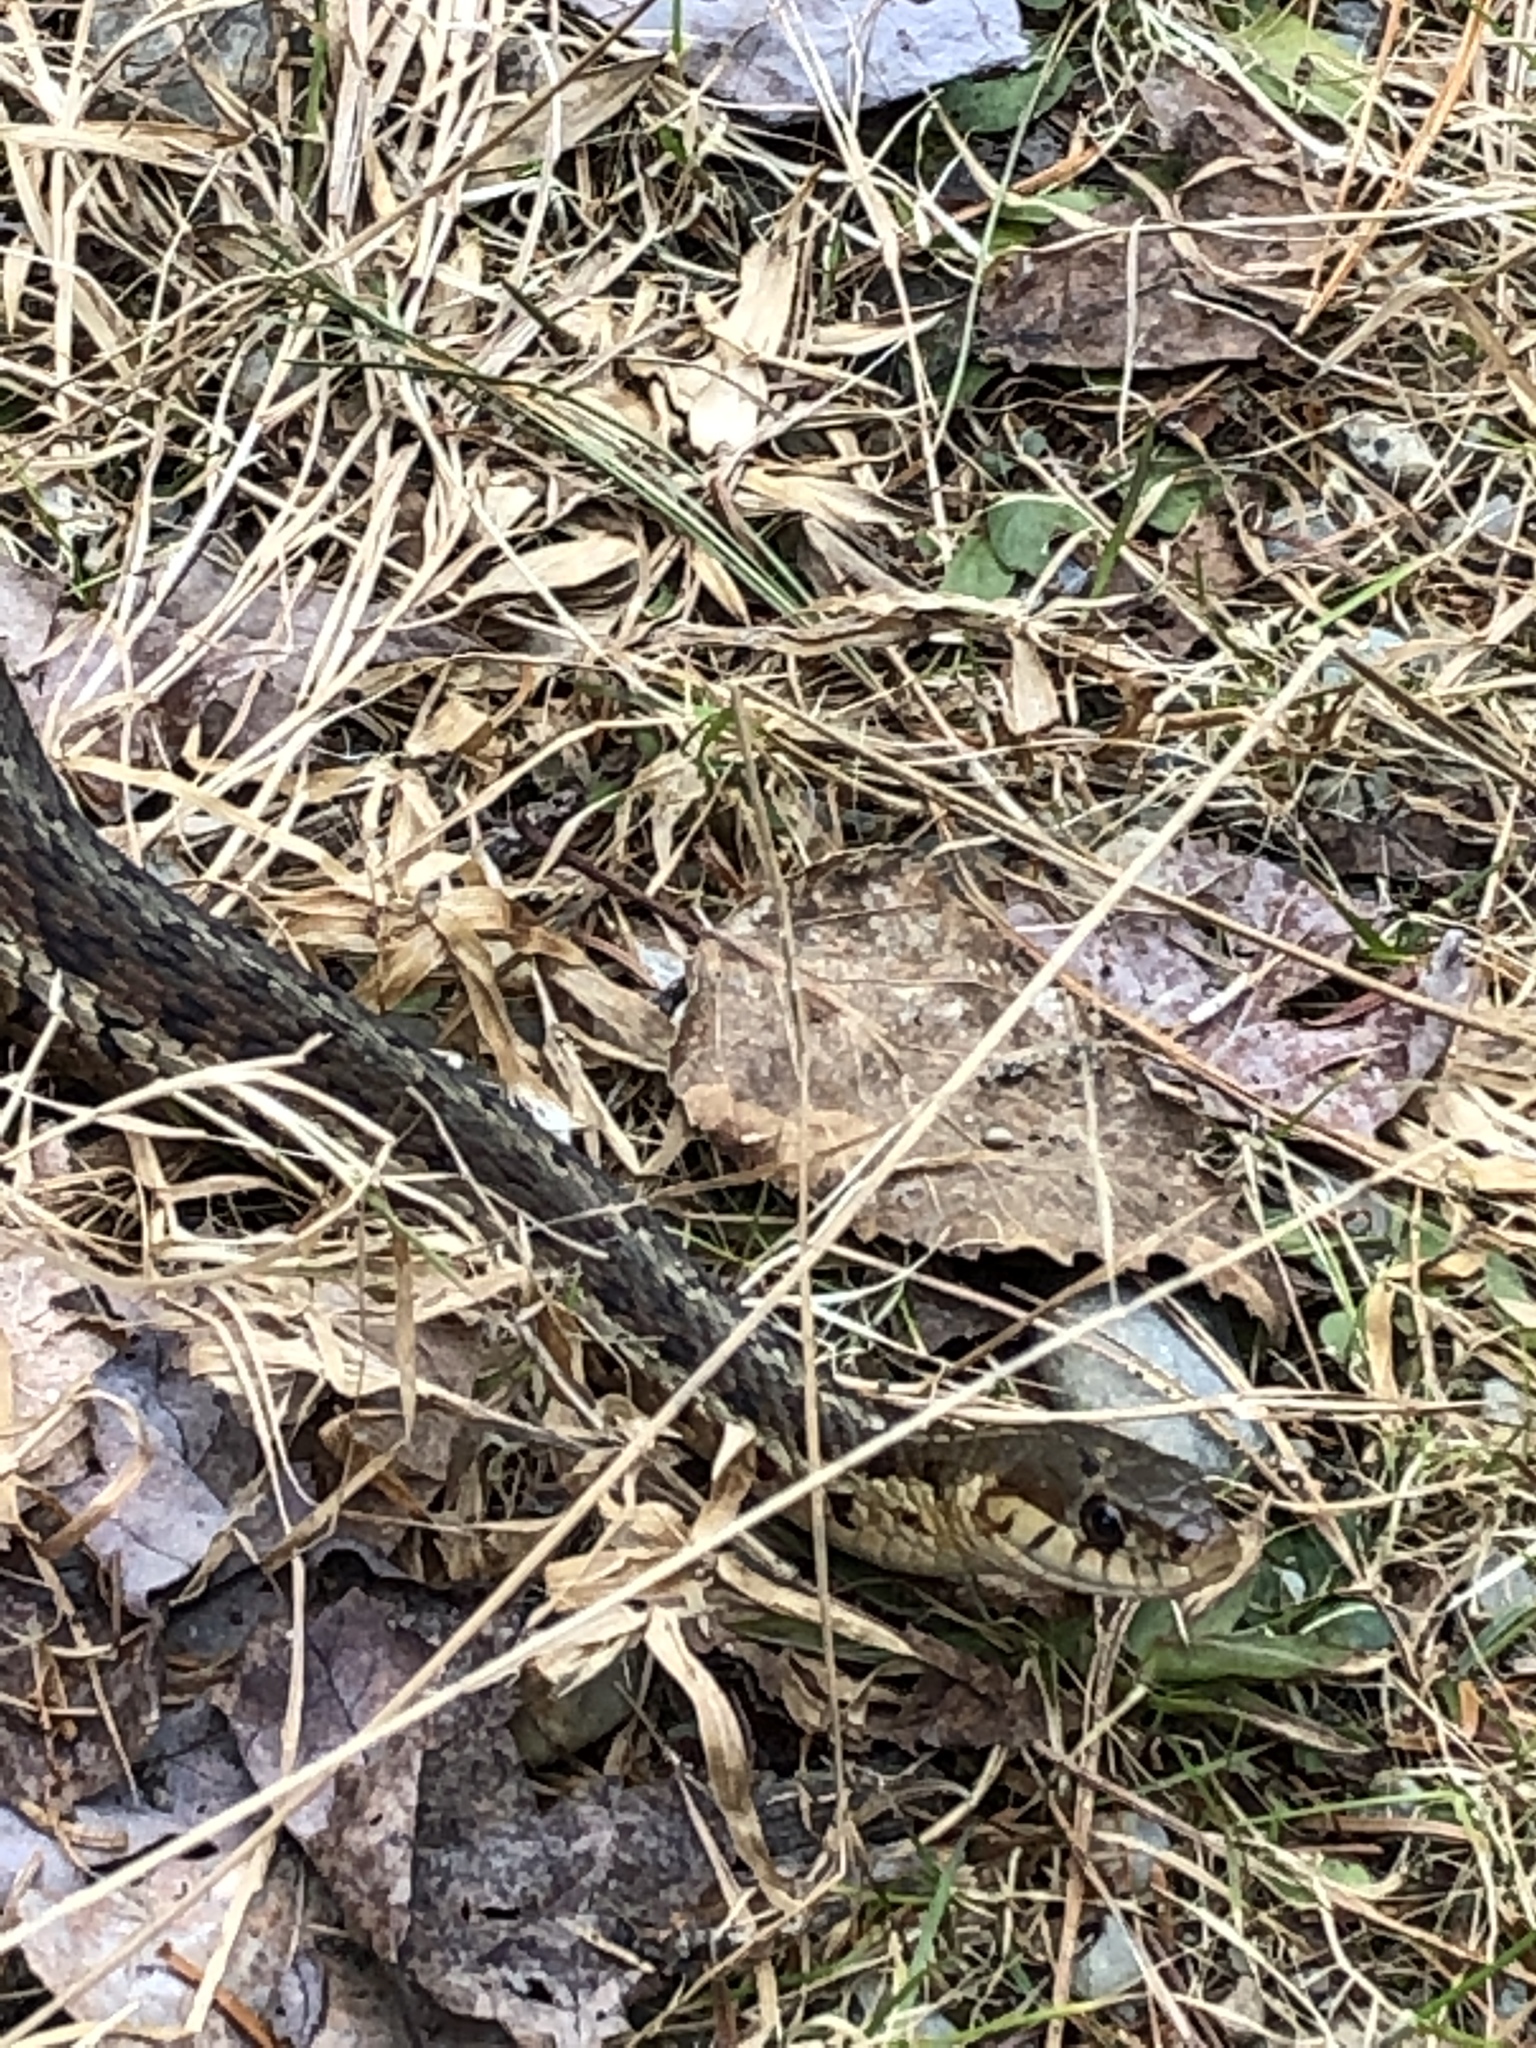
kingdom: Animalia
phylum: Chordata
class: Squamata
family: Colubridae
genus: Thamnophis
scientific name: Thamnophis sirtalis
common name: Common garter snake
